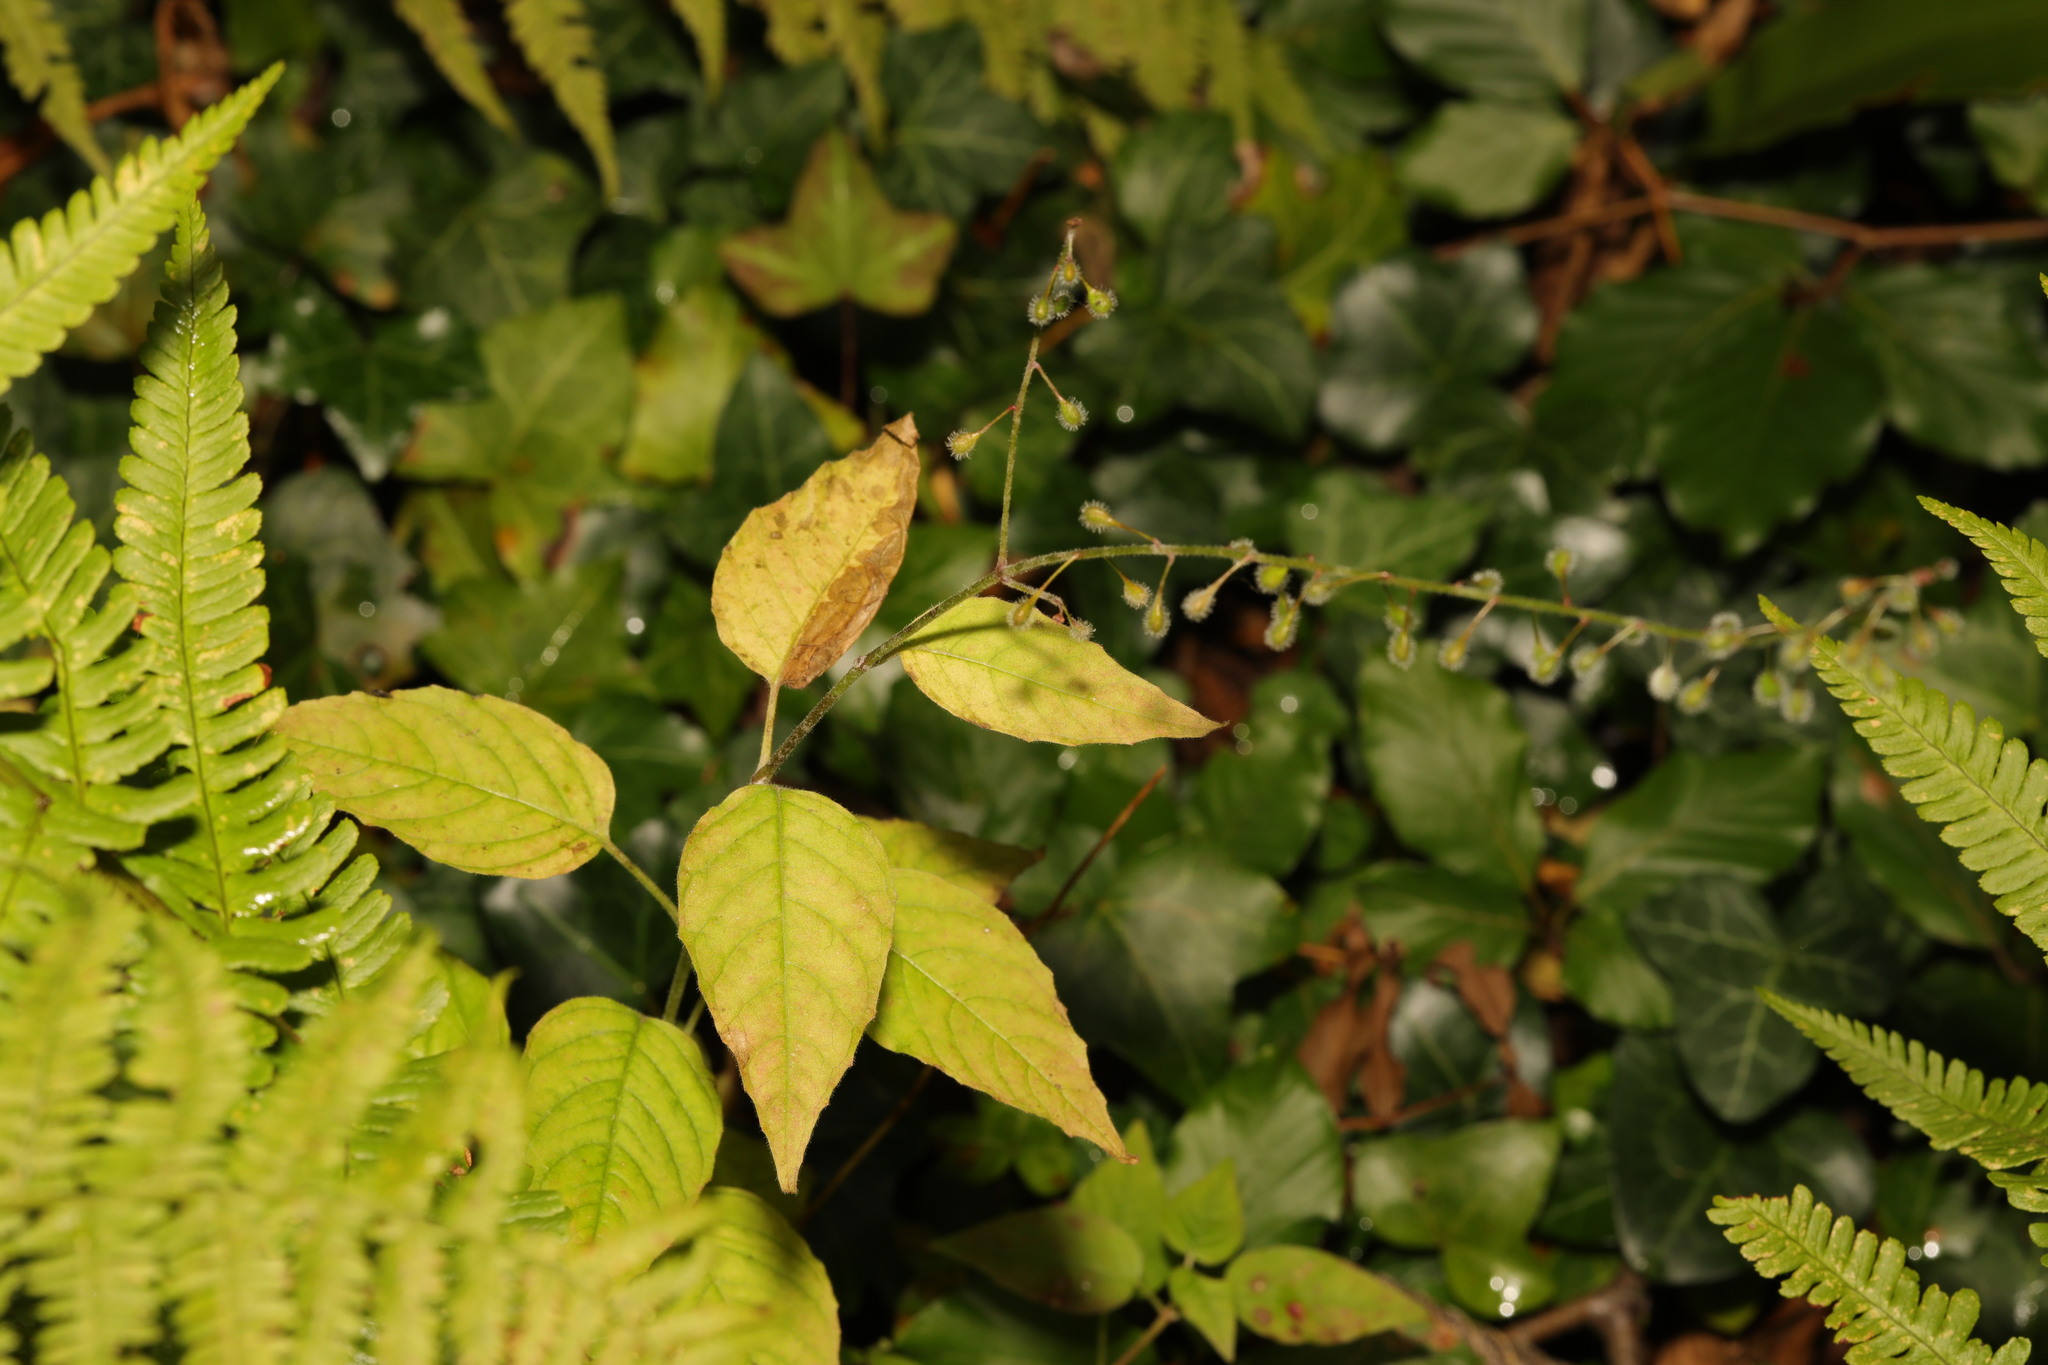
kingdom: Plantae
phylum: Tracheophyta
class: Magnoliopsida
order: Myrtales
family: Onagraceae
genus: Circaea
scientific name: Circaea lutetiana
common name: Enchanter's-nightshade
